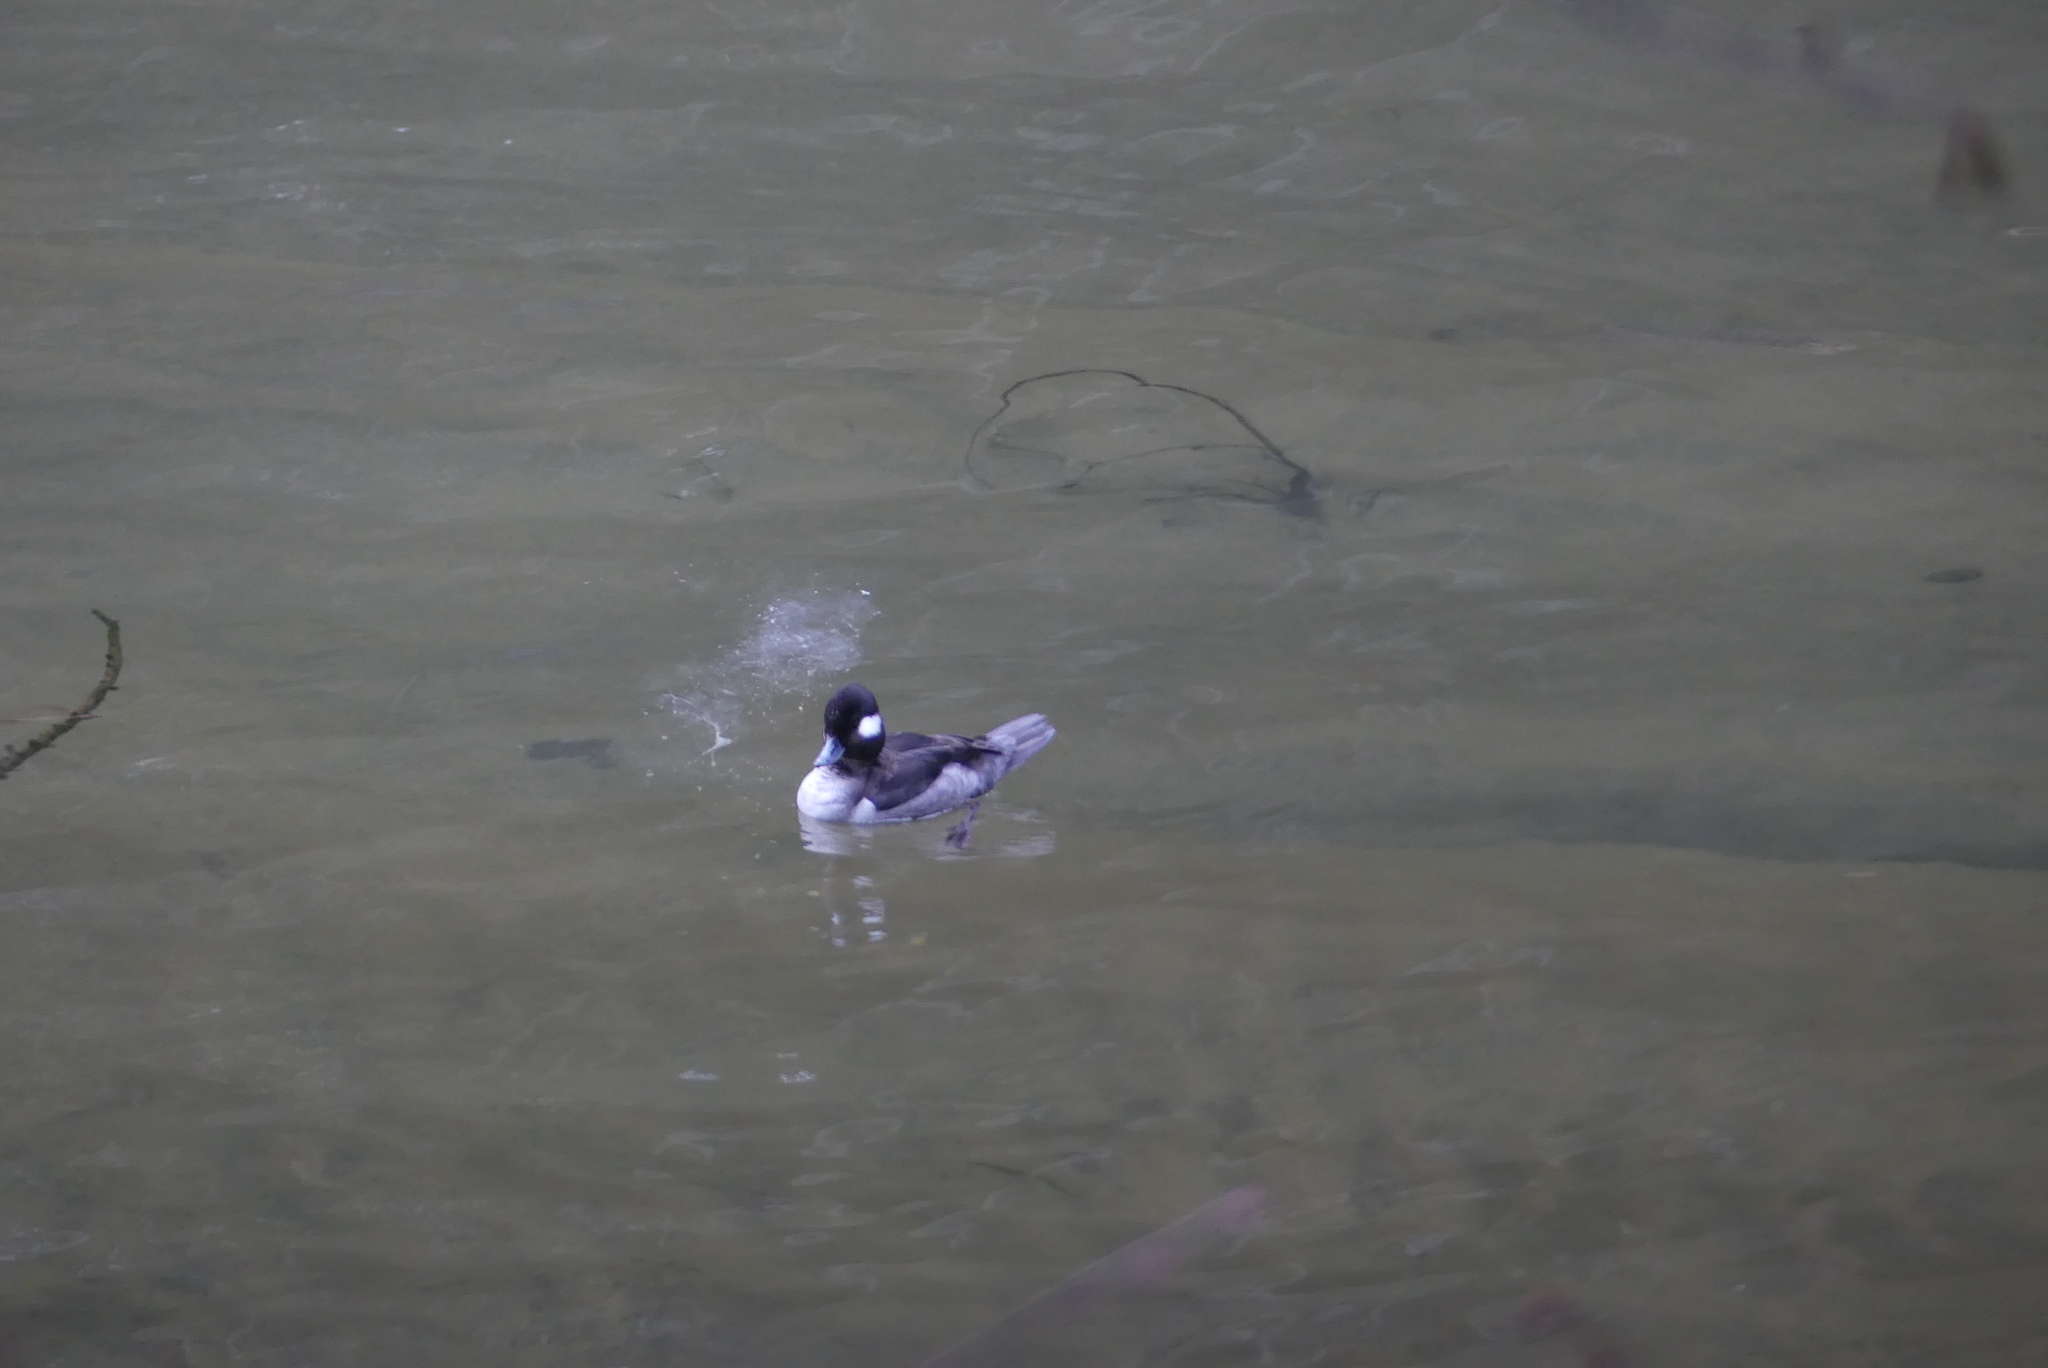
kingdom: Animalia
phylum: Chordata
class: Aves
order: Anseriformes
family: Anatidae
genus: Bucephala
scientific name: Bucephala albeola
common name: Bufflehead
